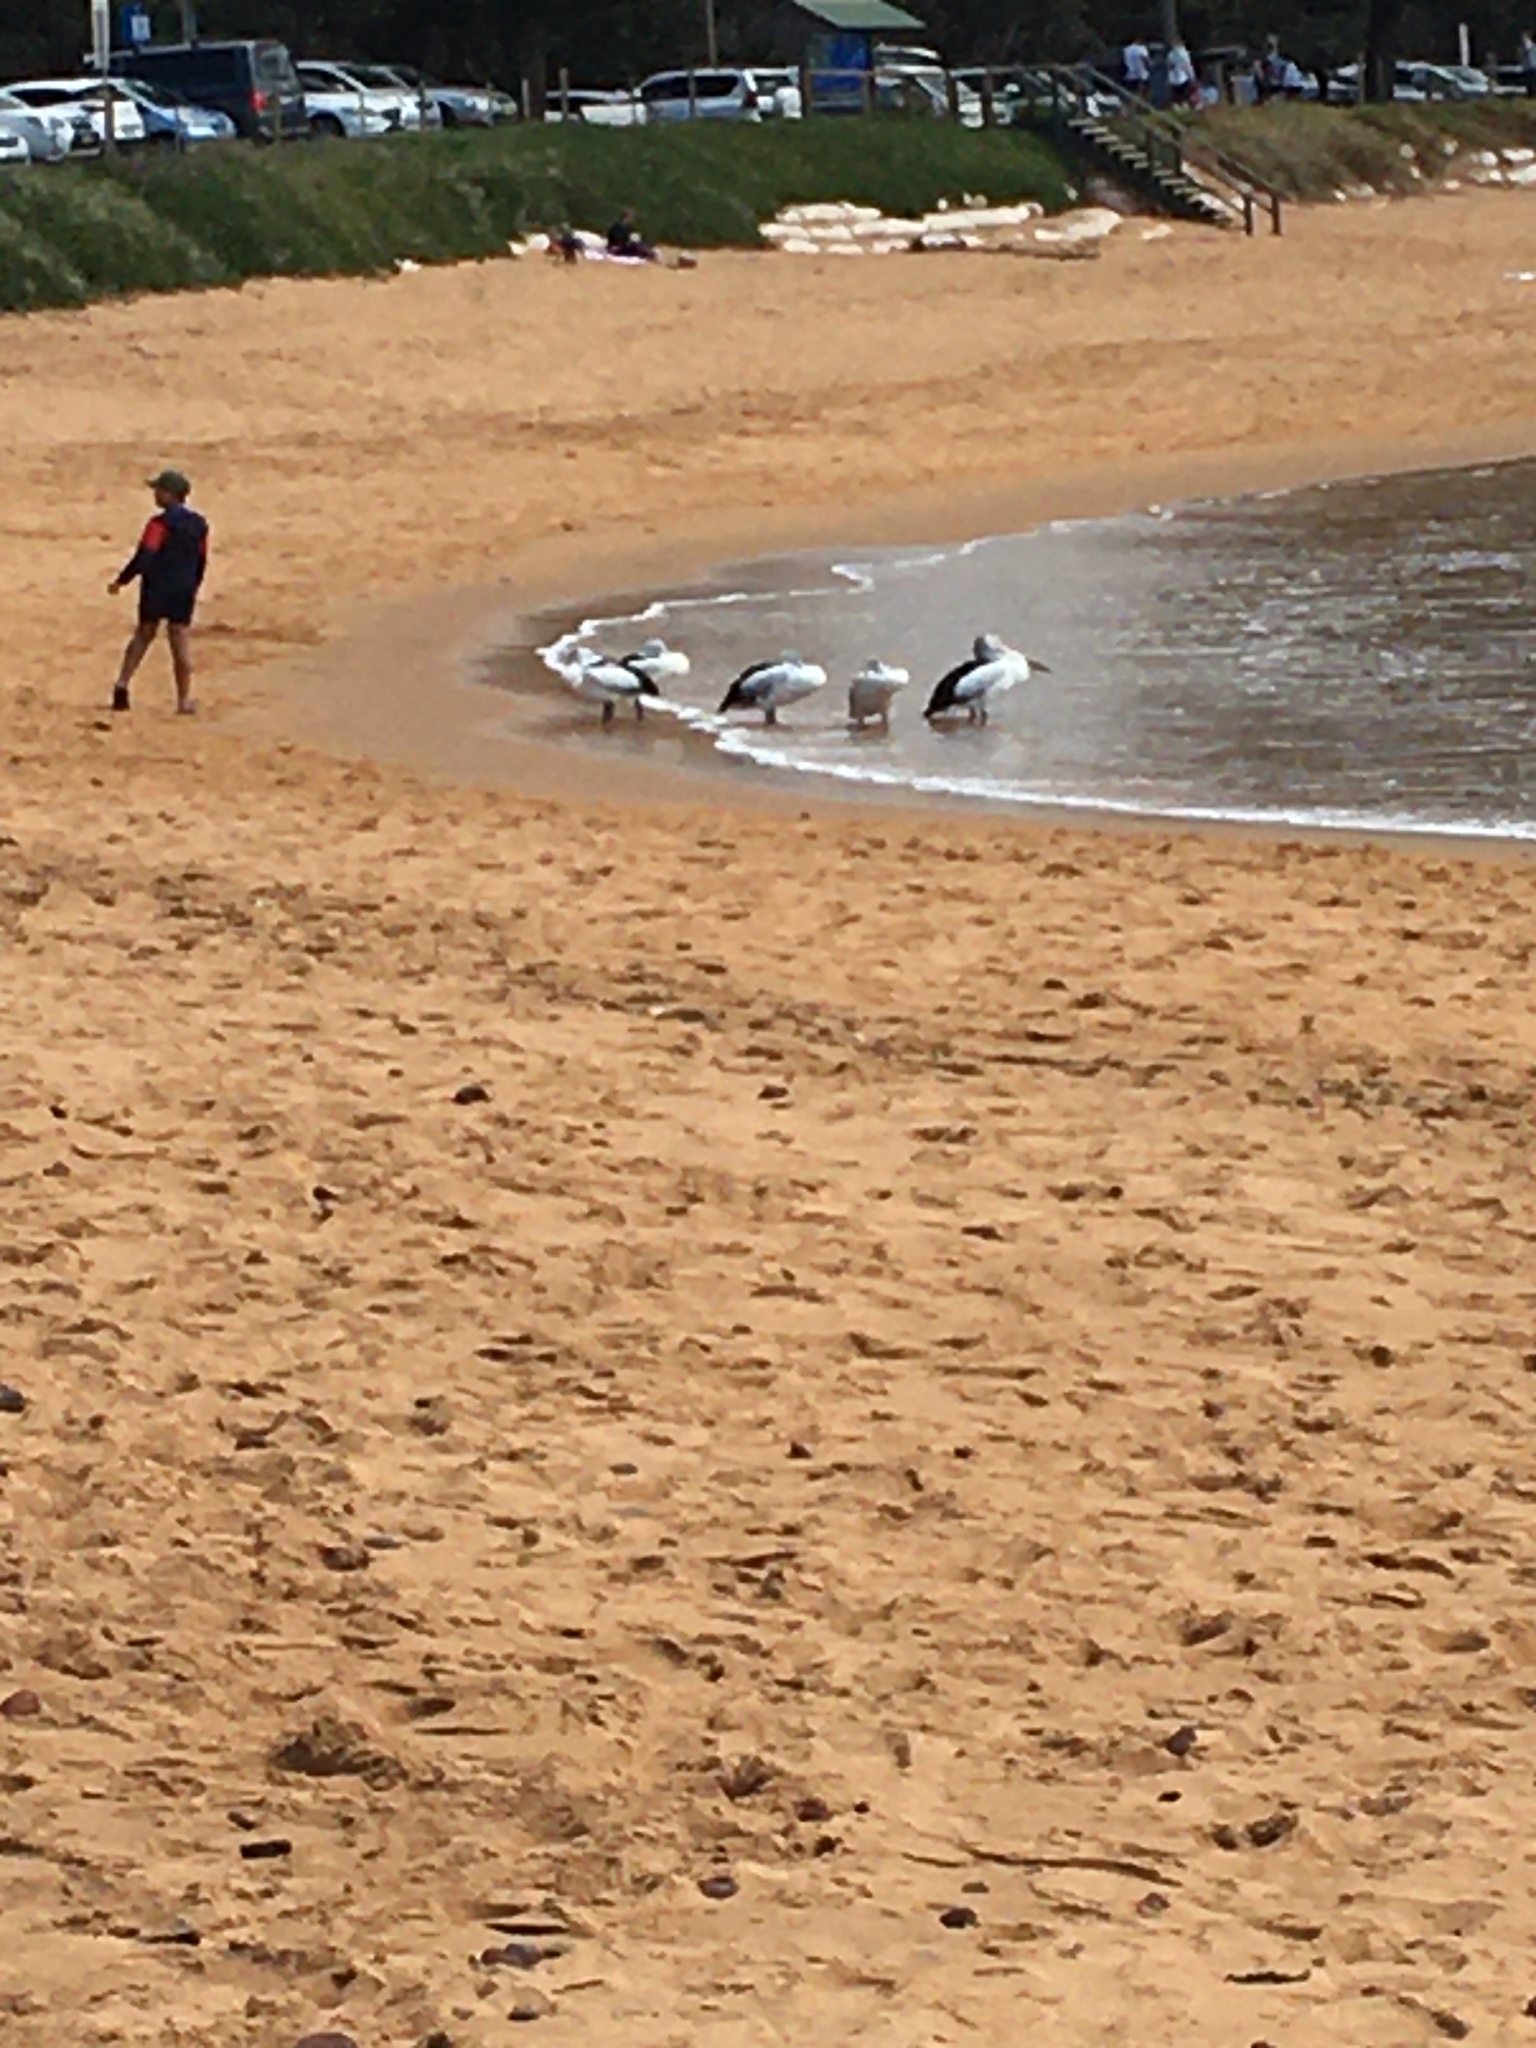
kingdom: Animalia
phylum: Chordata
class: Aves
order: Pelecaniformes
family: Pelecanidae
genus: Pelecanus
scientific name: Pelecanus conspicillatus
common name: Australian pelican
